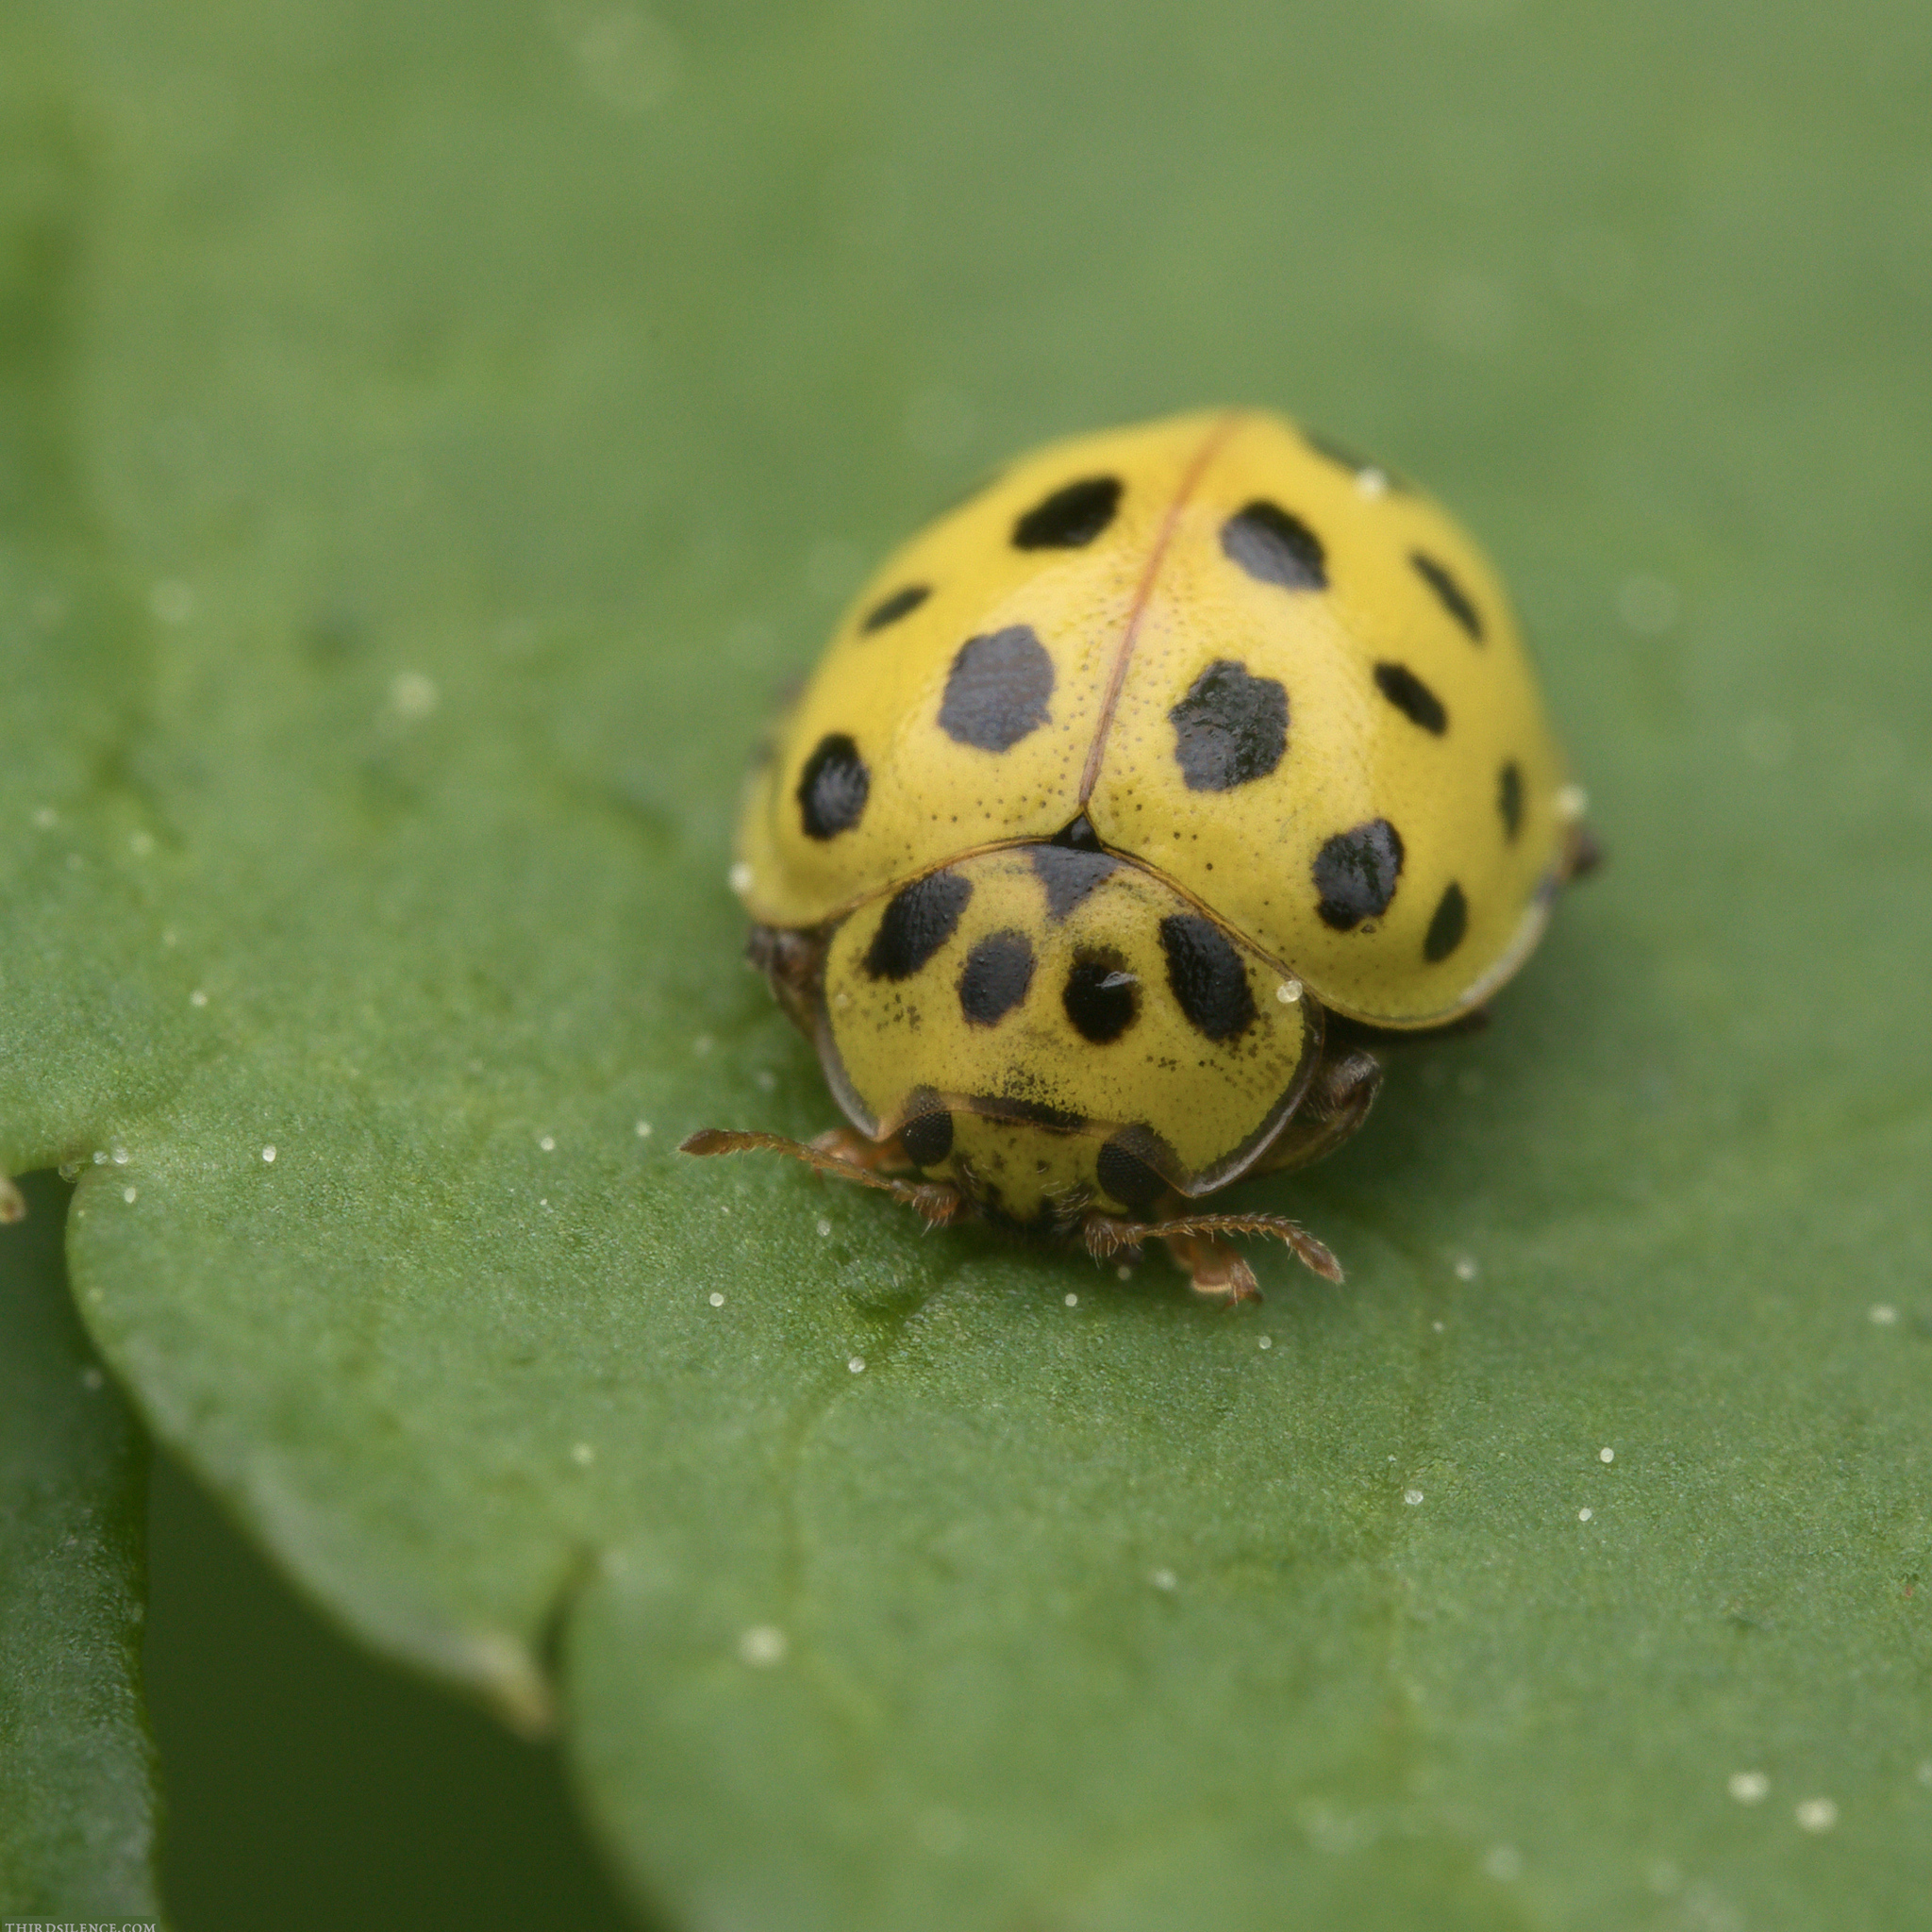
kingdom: Animalia
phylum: Arthropoda
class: Insecta
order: Coleoptera
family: Coccinellidae
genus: Psyllobora
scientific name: Psyllobora vigintiduopunctata
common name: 22-spot ladybird
